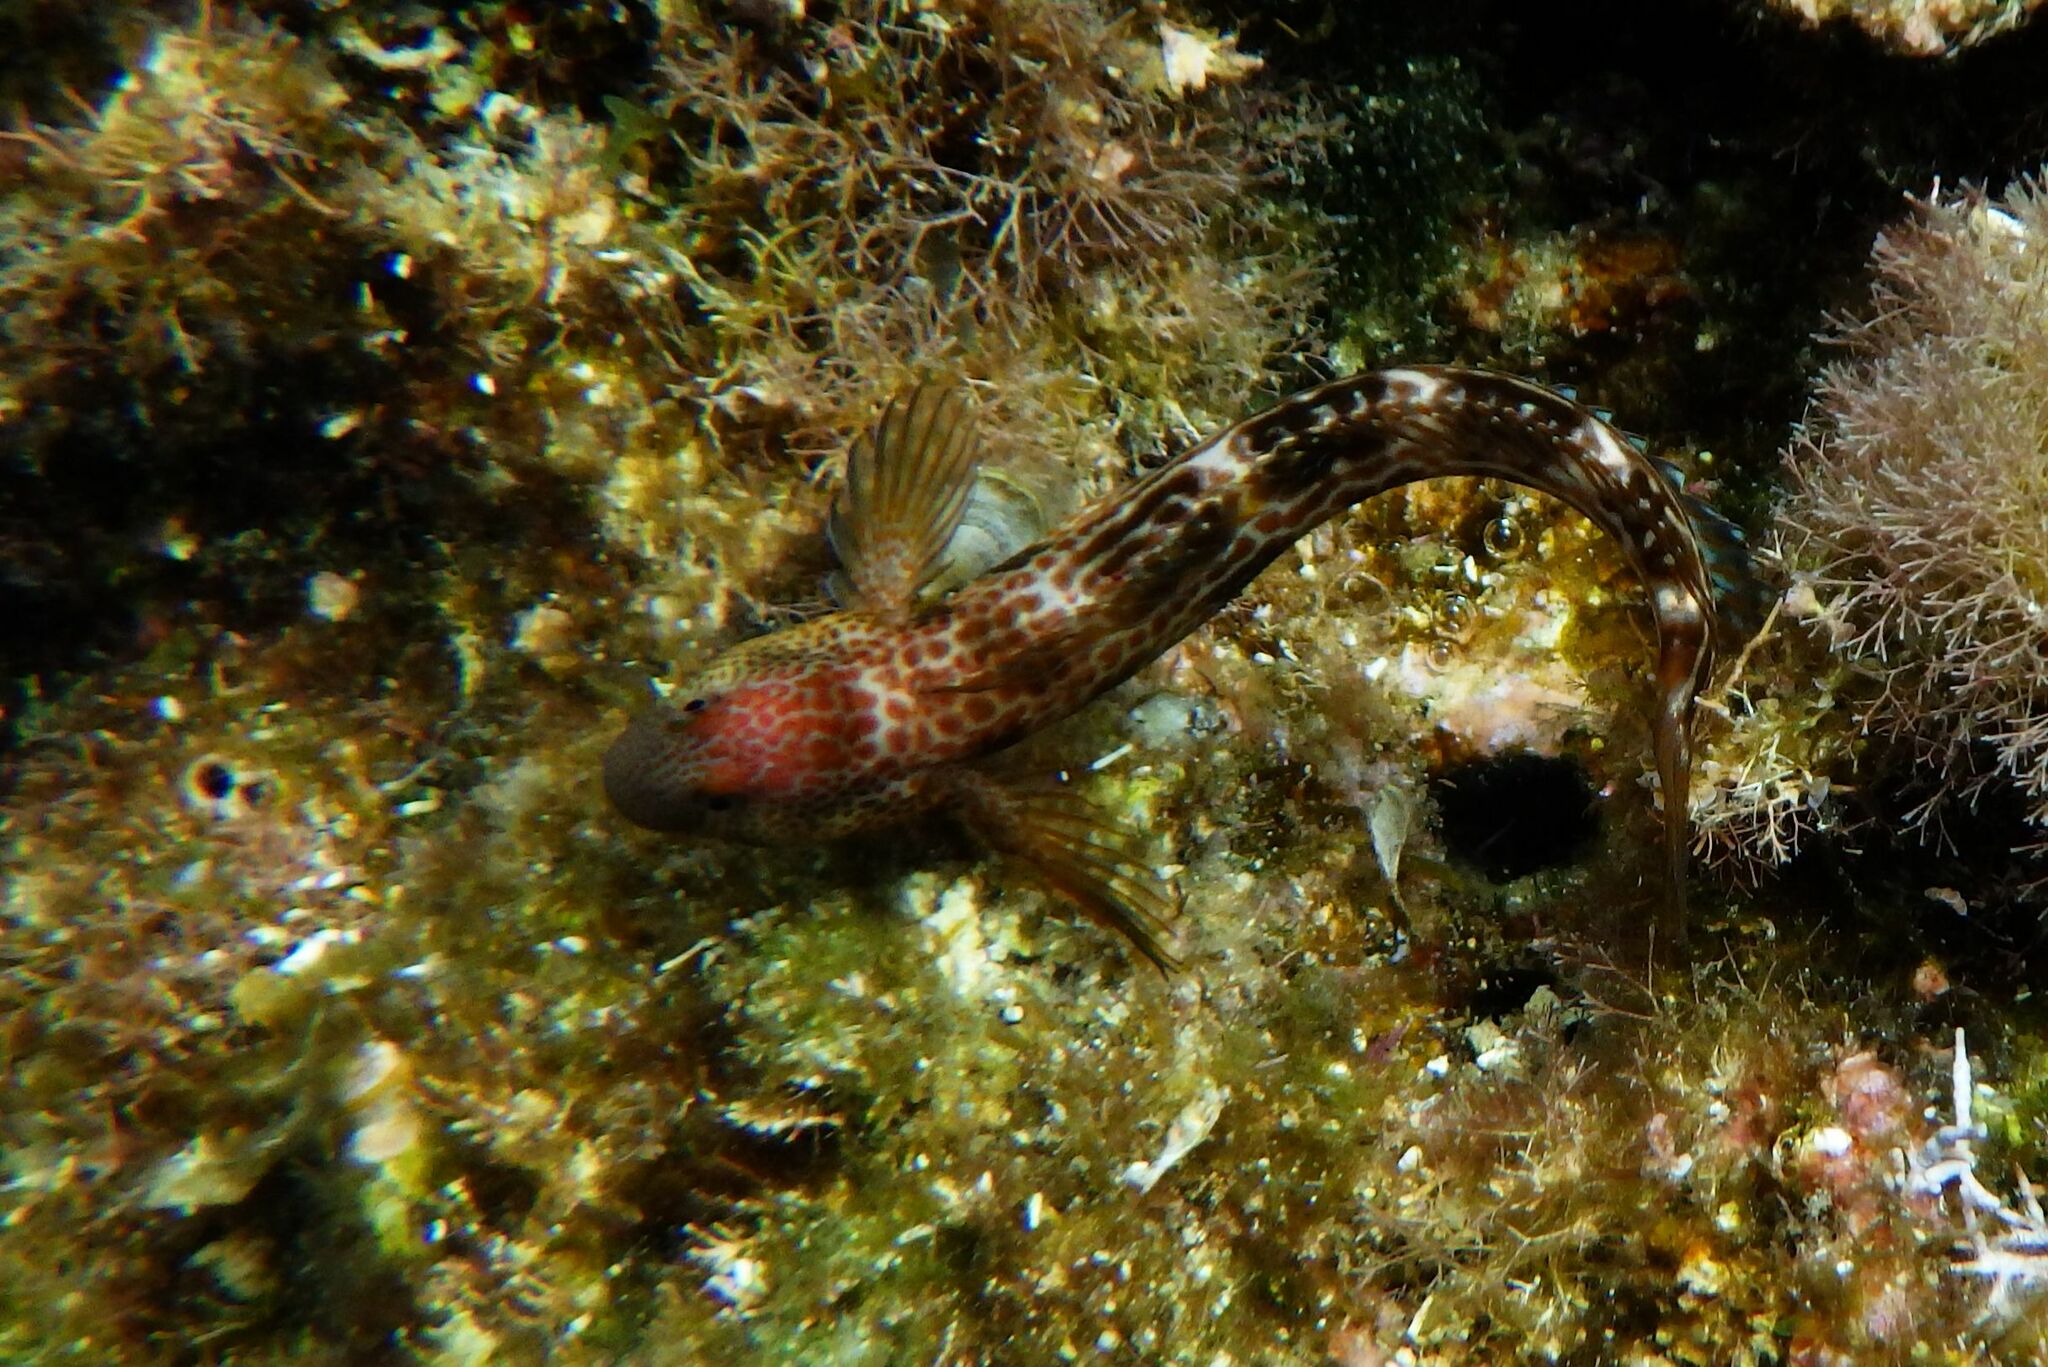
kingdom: Animalia
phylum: Chordata
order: Perciformes
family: Blenniidae
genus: Microlipophrys
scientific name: Microlipophrys canevae
